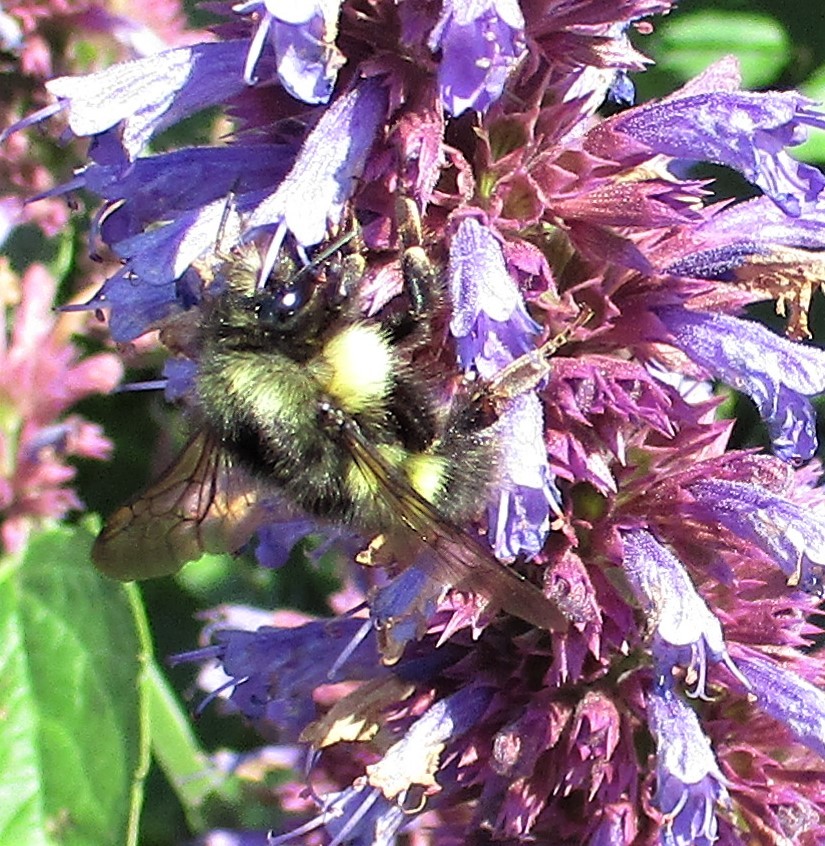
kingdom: Animalia
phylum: Arthropoda
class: Insecta
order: Hymenoptera
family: Apidae
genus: Bombus
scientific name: Bombus flavifrons
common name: Yellow head bumble bee
